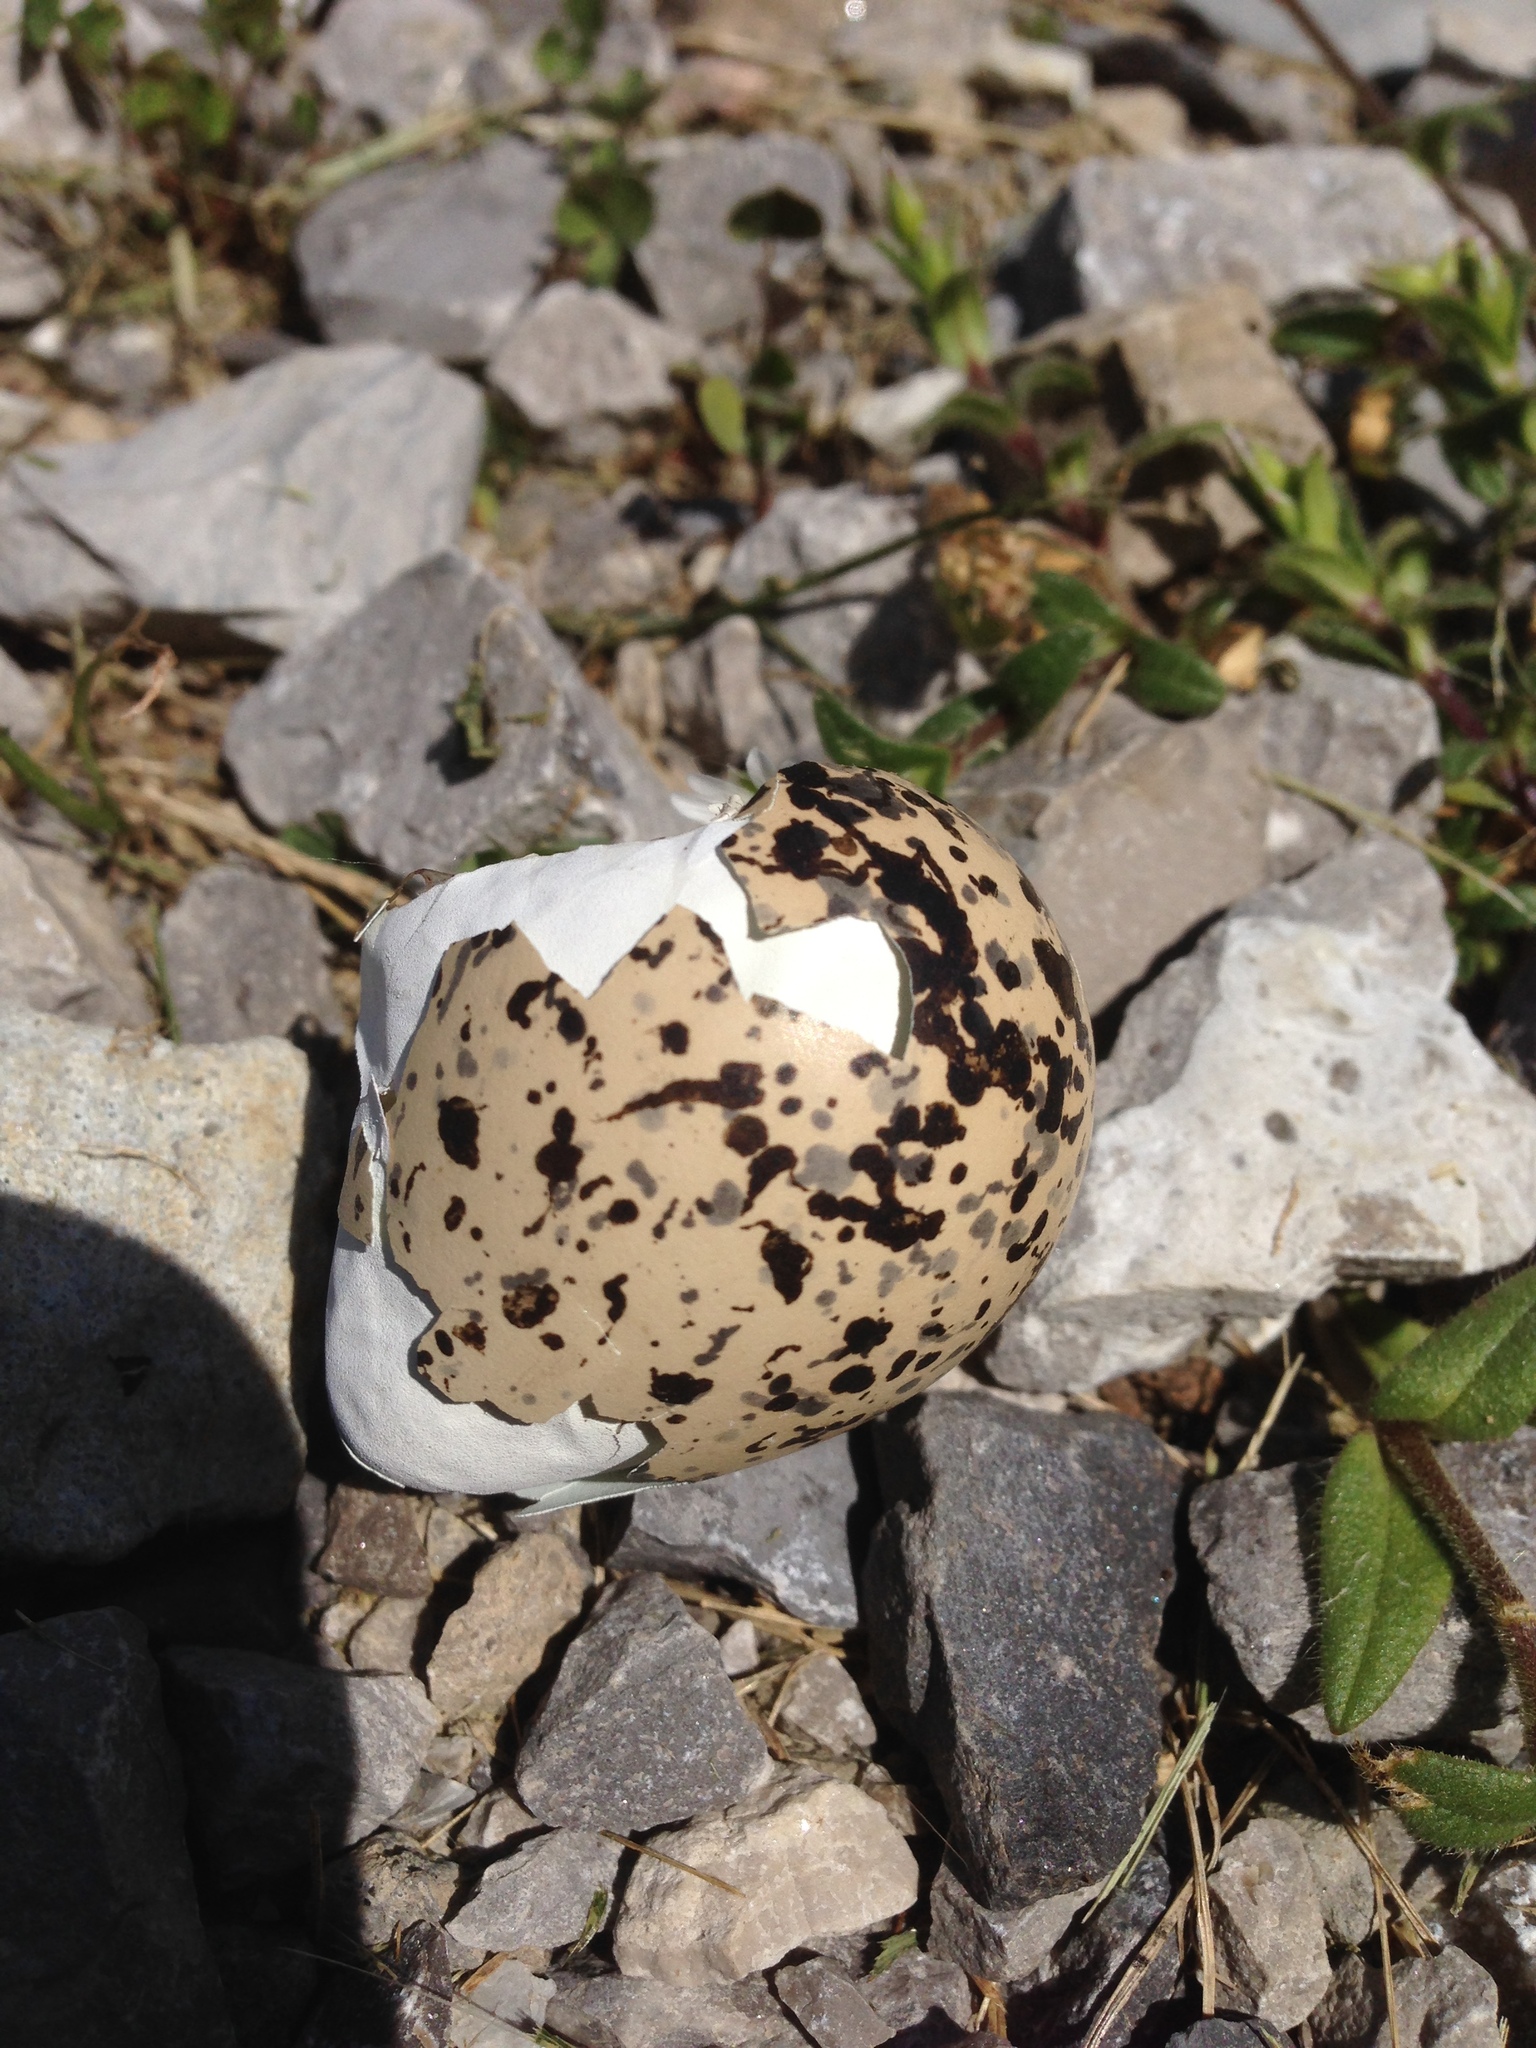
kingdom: Animalia
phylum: Chordata
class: Aves
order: Charadriiformes
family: Charadriidae
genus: Charadrius
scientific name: Charadrius vociferus
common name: Killdeer
